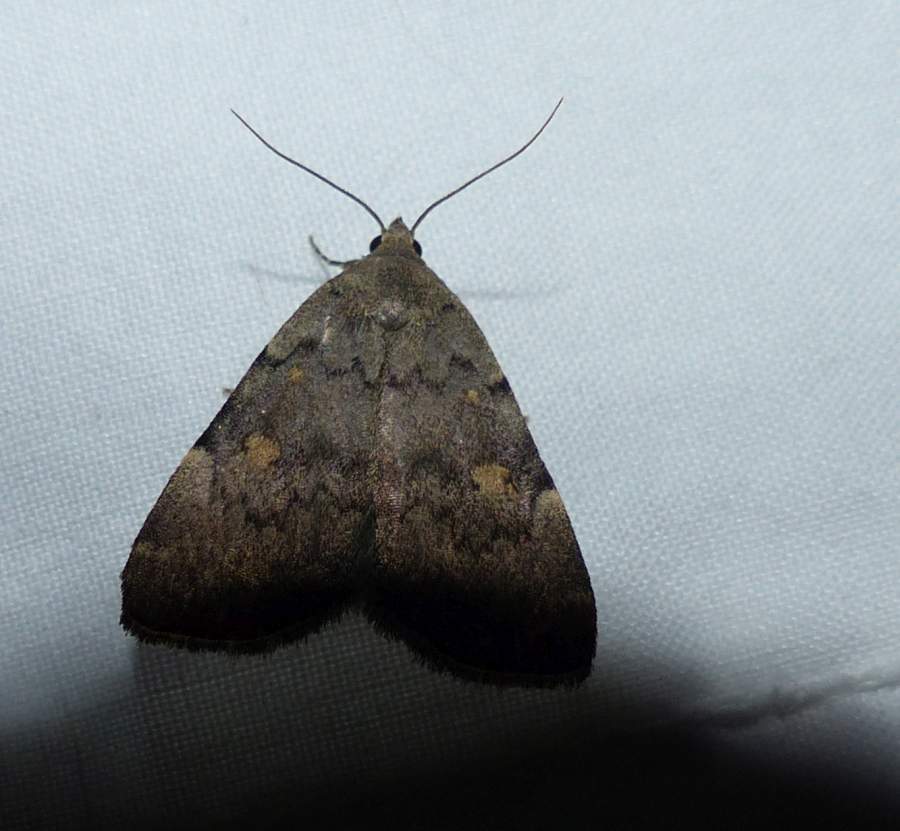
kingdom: Animalia
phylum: Arthropoda
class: Insecta
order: Lepidoptera
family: Erebidae
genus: Idia
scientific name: Idia aemula
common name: Common idia moth
